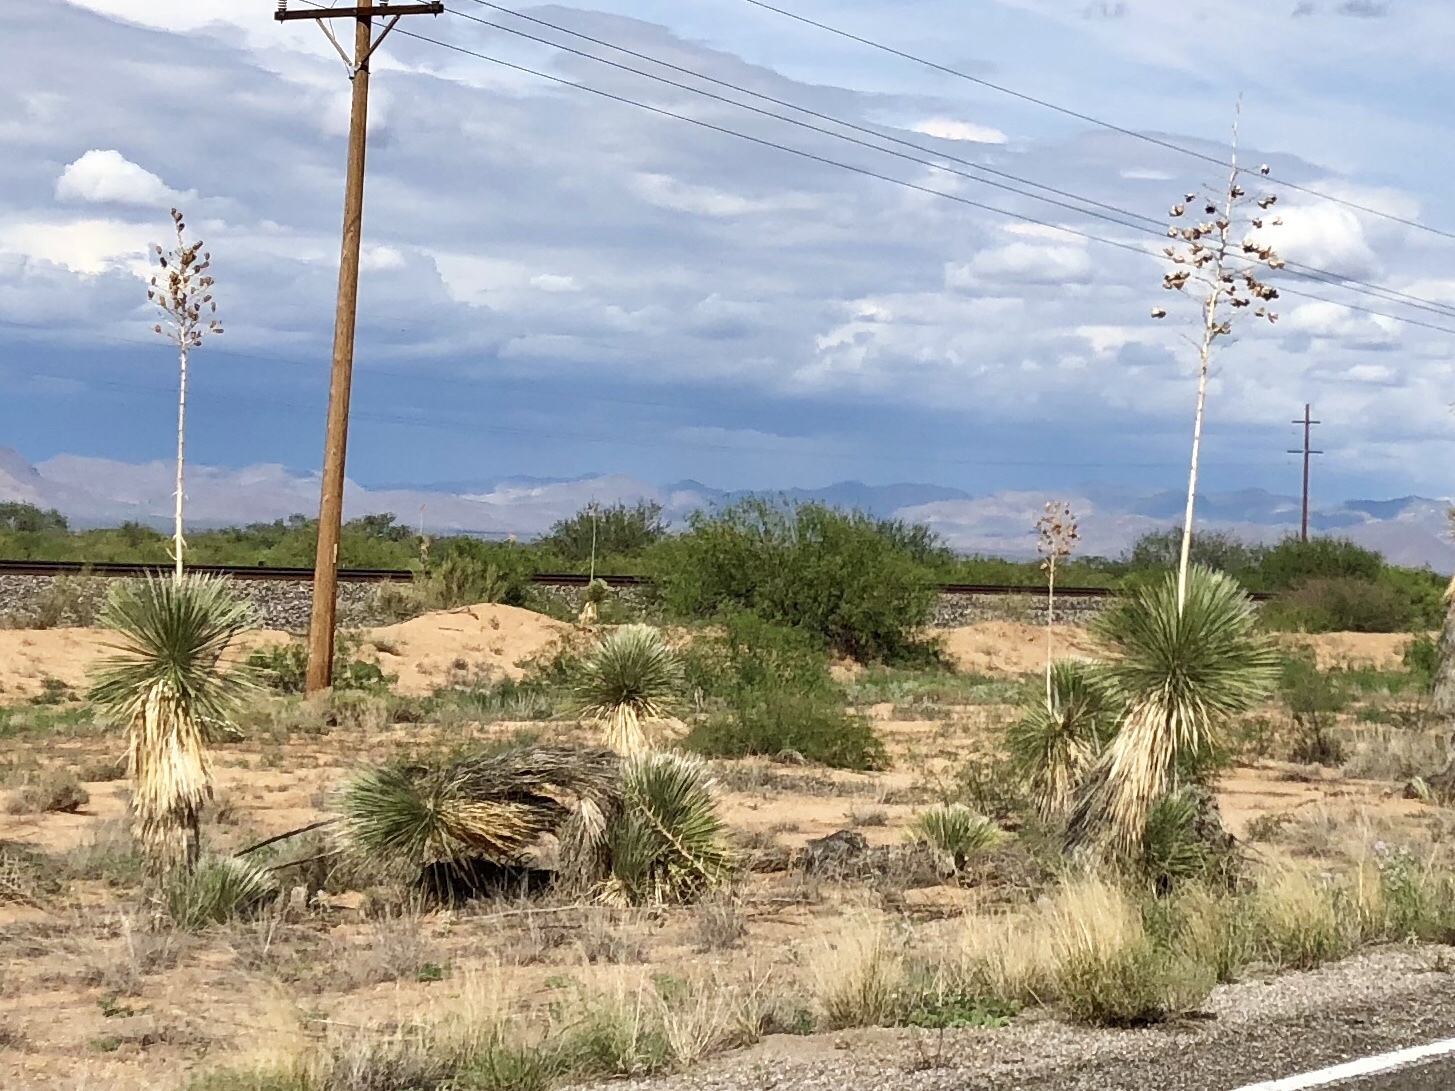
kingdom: Plantae
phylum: Tracheophyta
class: Liliopsida
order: Asparagales
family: Asparagaceae
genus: Yucca
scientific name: Yucca elata
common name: Palmella
